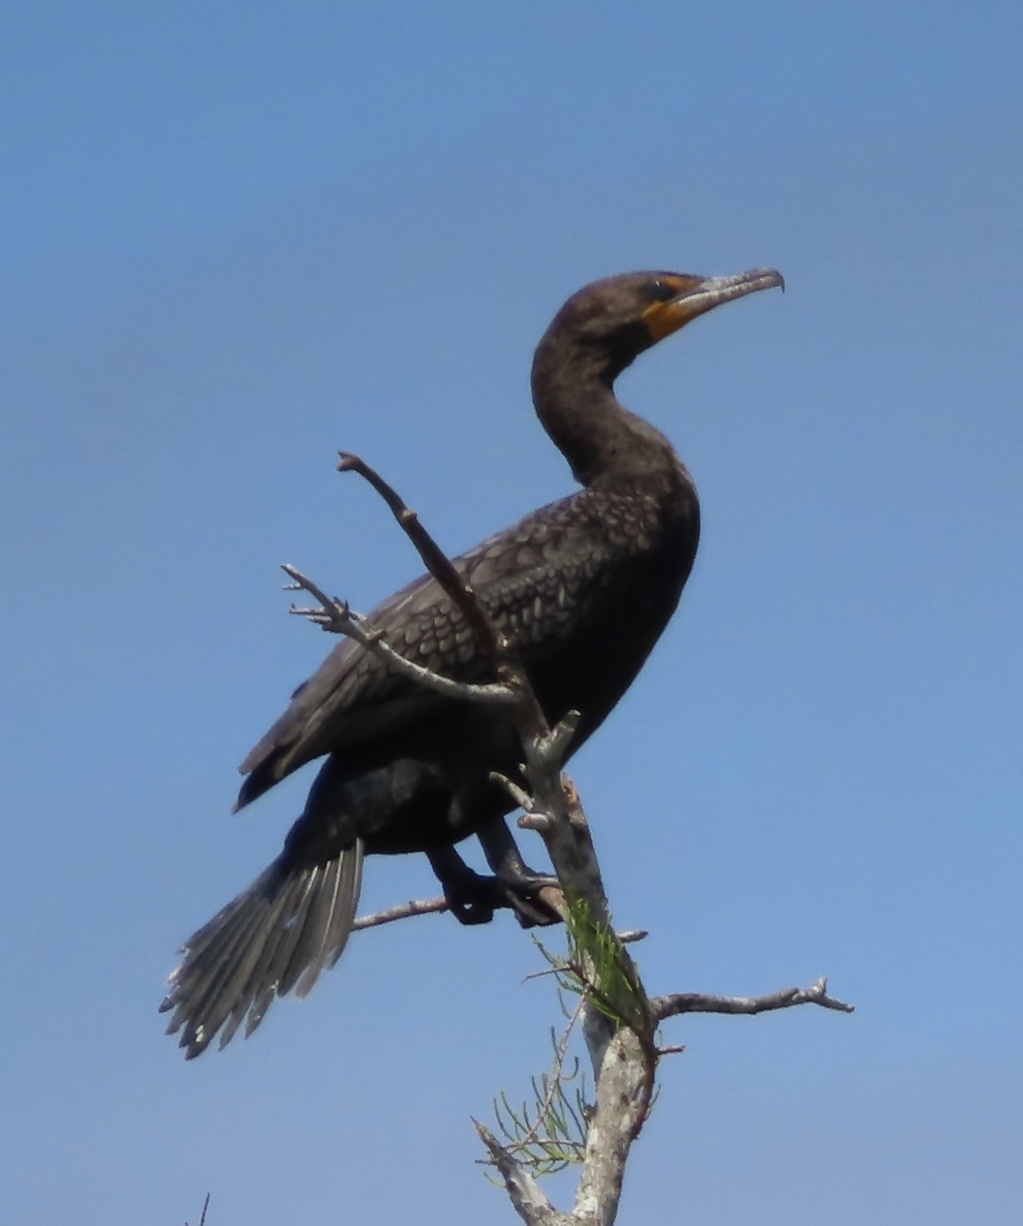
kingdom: Animalia
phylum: Chordata
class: Aves
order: Suliformes
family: Phalacrocoracidae
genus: Phalacrocorax
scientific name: Phalacrocorax auritus
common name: Double-crested cormorant
